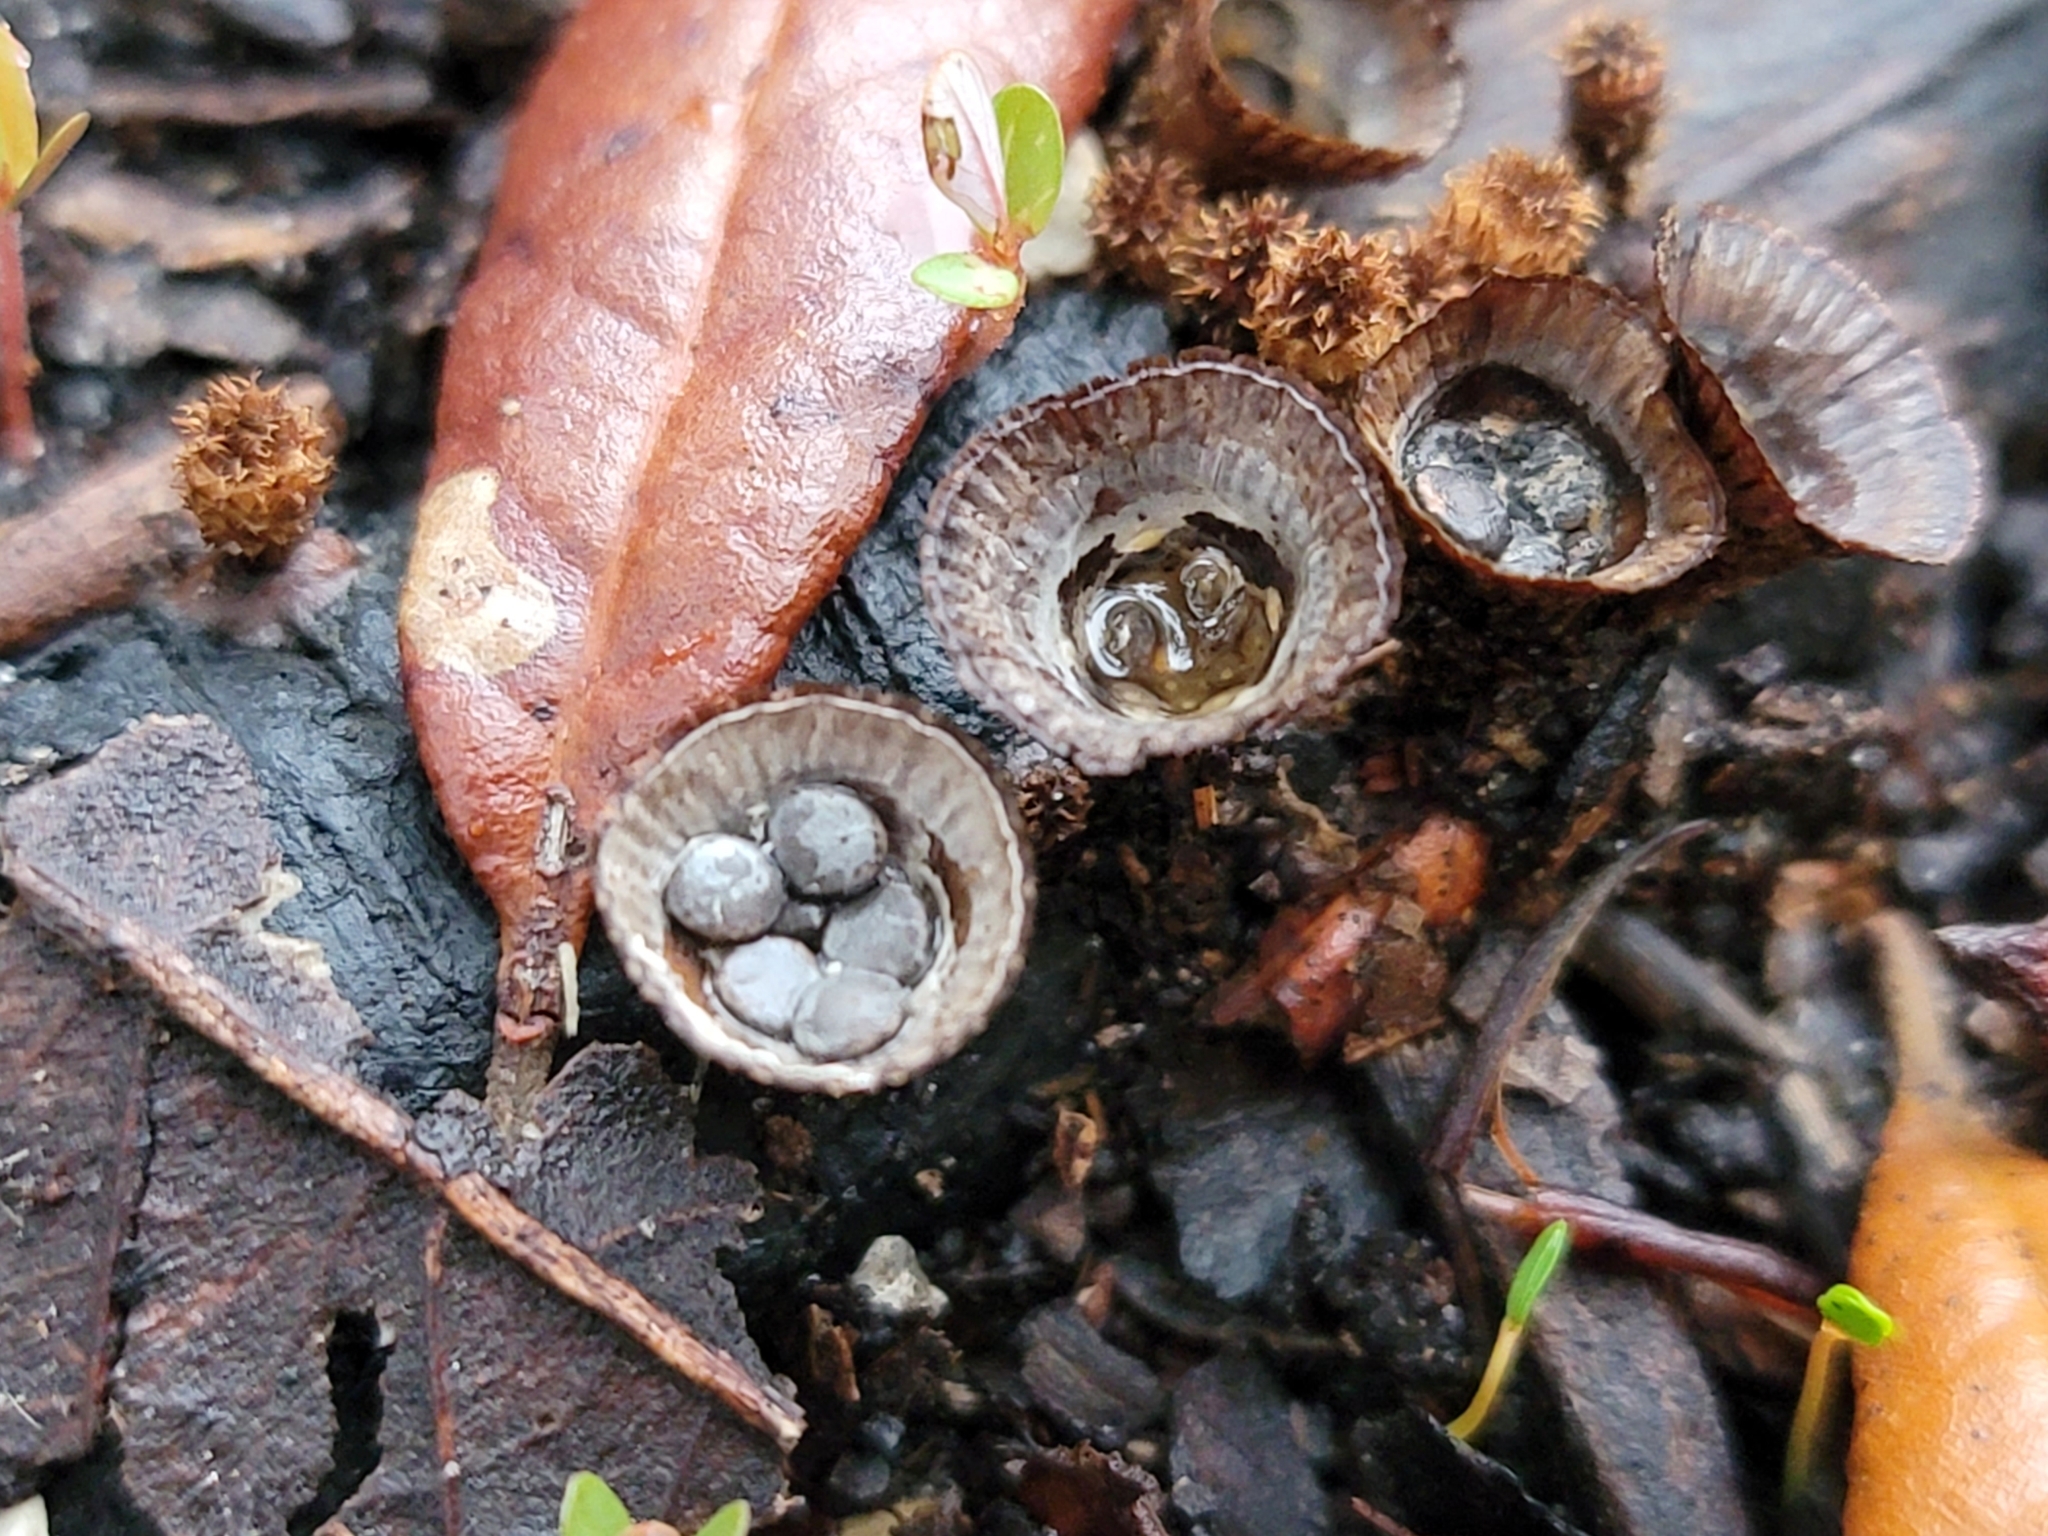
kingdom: Fungi
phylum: Basidiomycota
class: Agaricomycetes
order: Agaricales
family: Agaricaceae
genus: Cyathus
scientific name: Cyathus olla
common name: Field bird's nest
